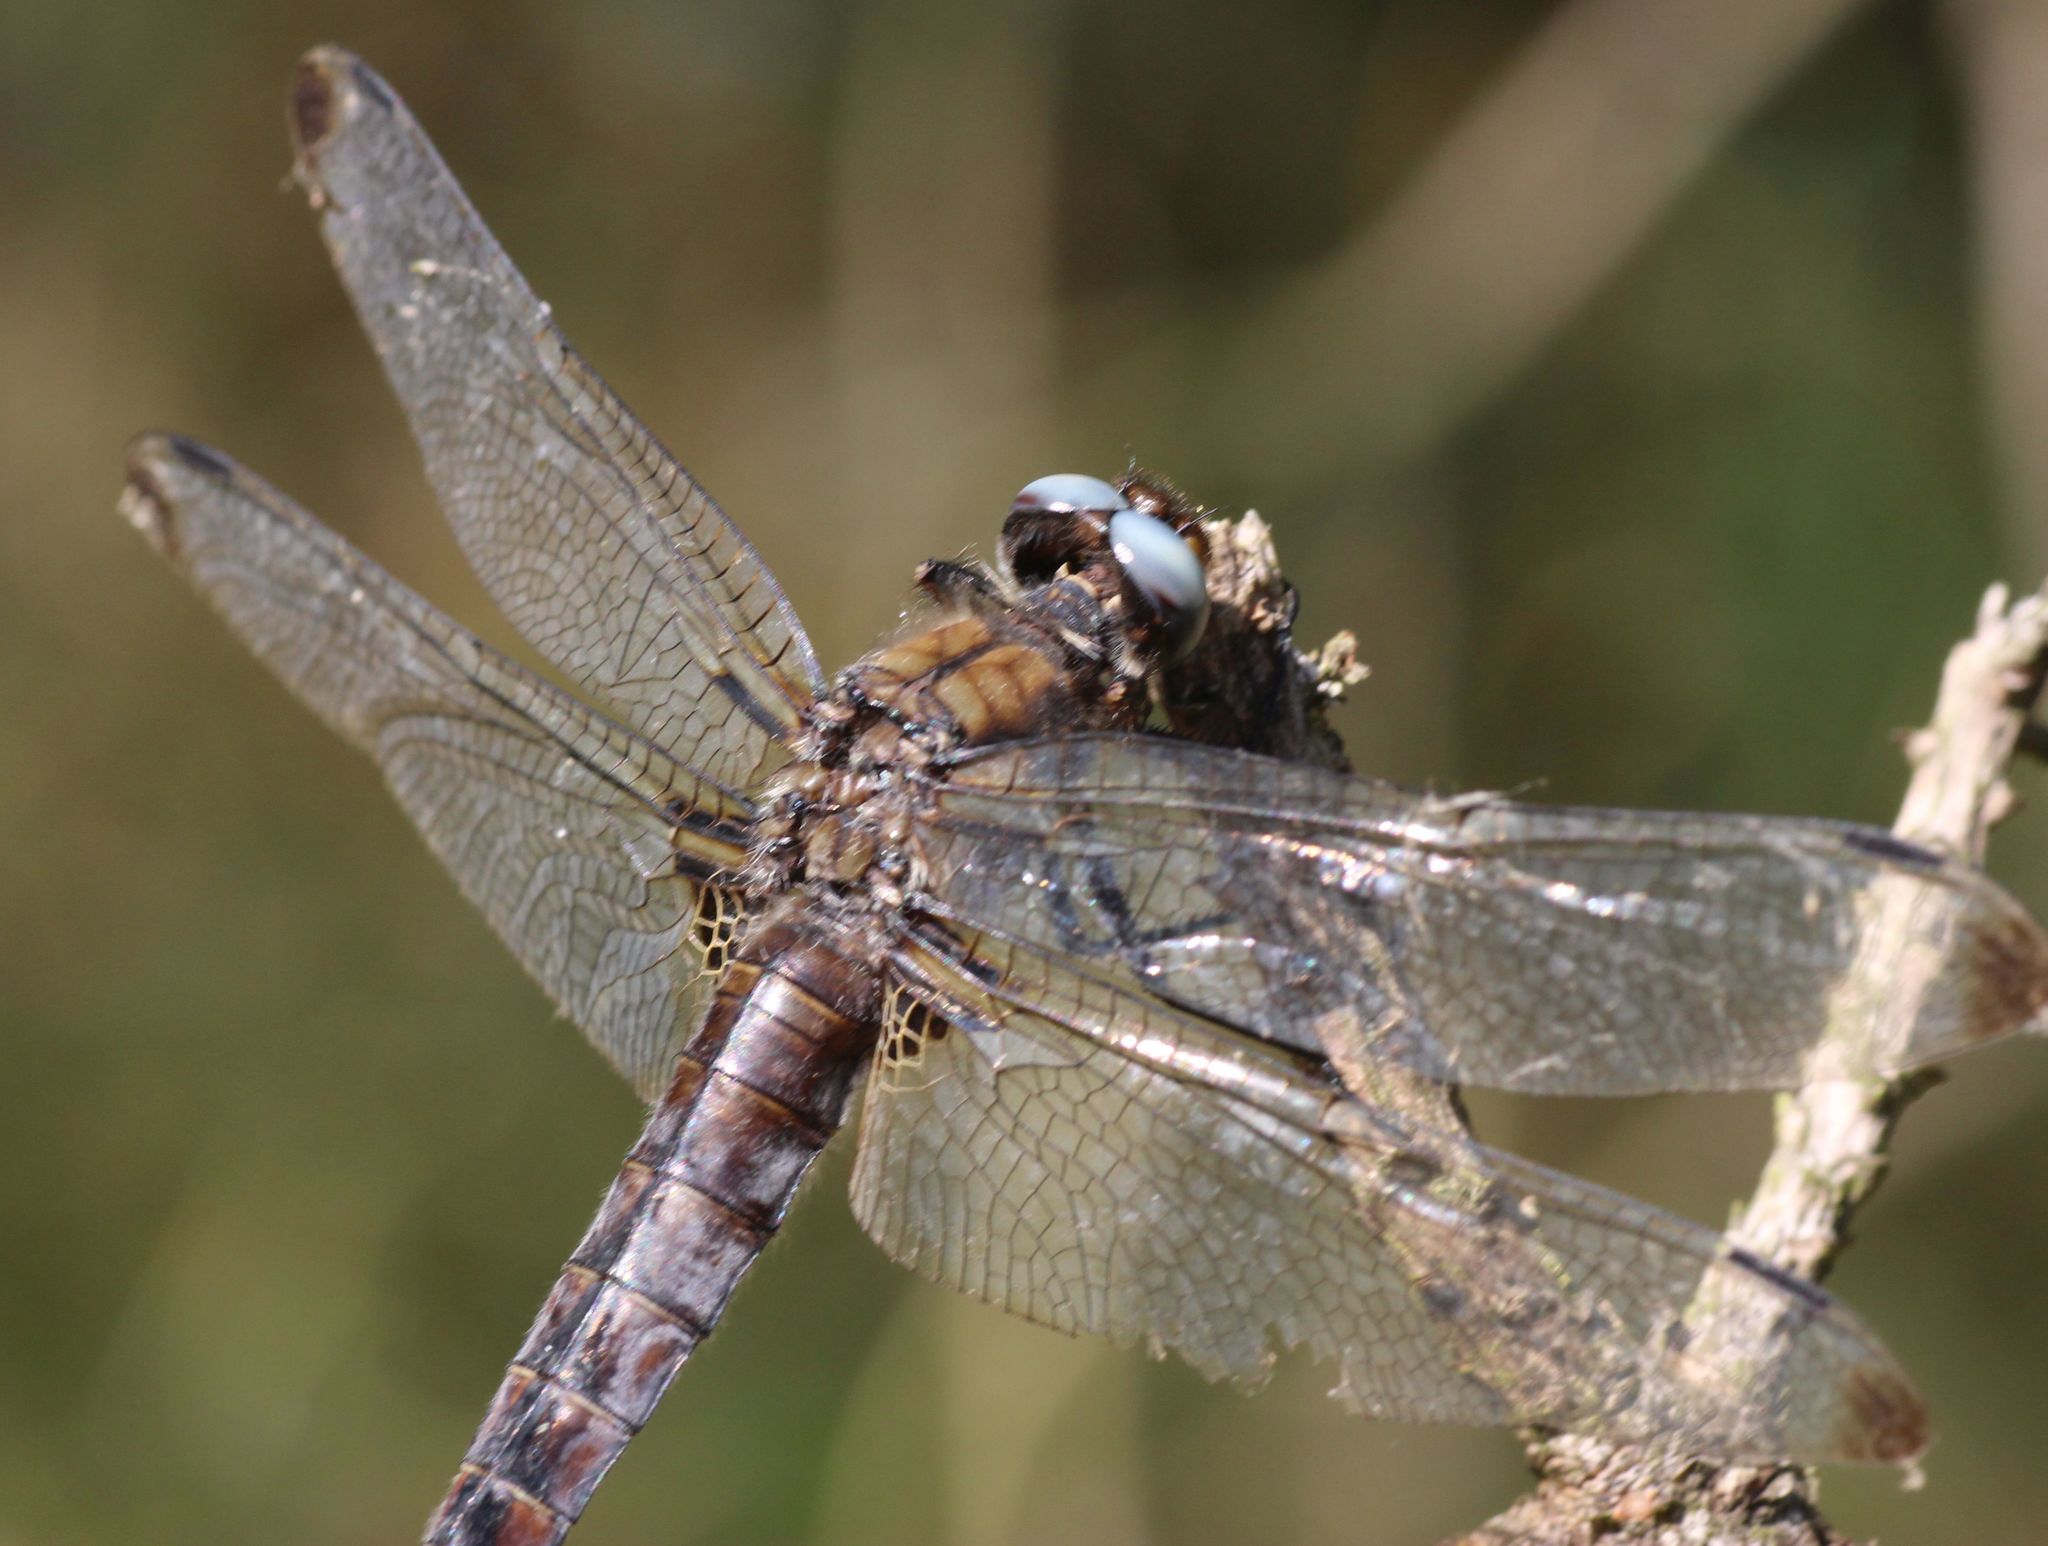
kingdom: Animalia
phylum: Arthropoda
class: Insecta
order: Odonata
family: Libellulidae
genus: Libellula
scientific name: Libellula fulva
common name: Blue chaser
